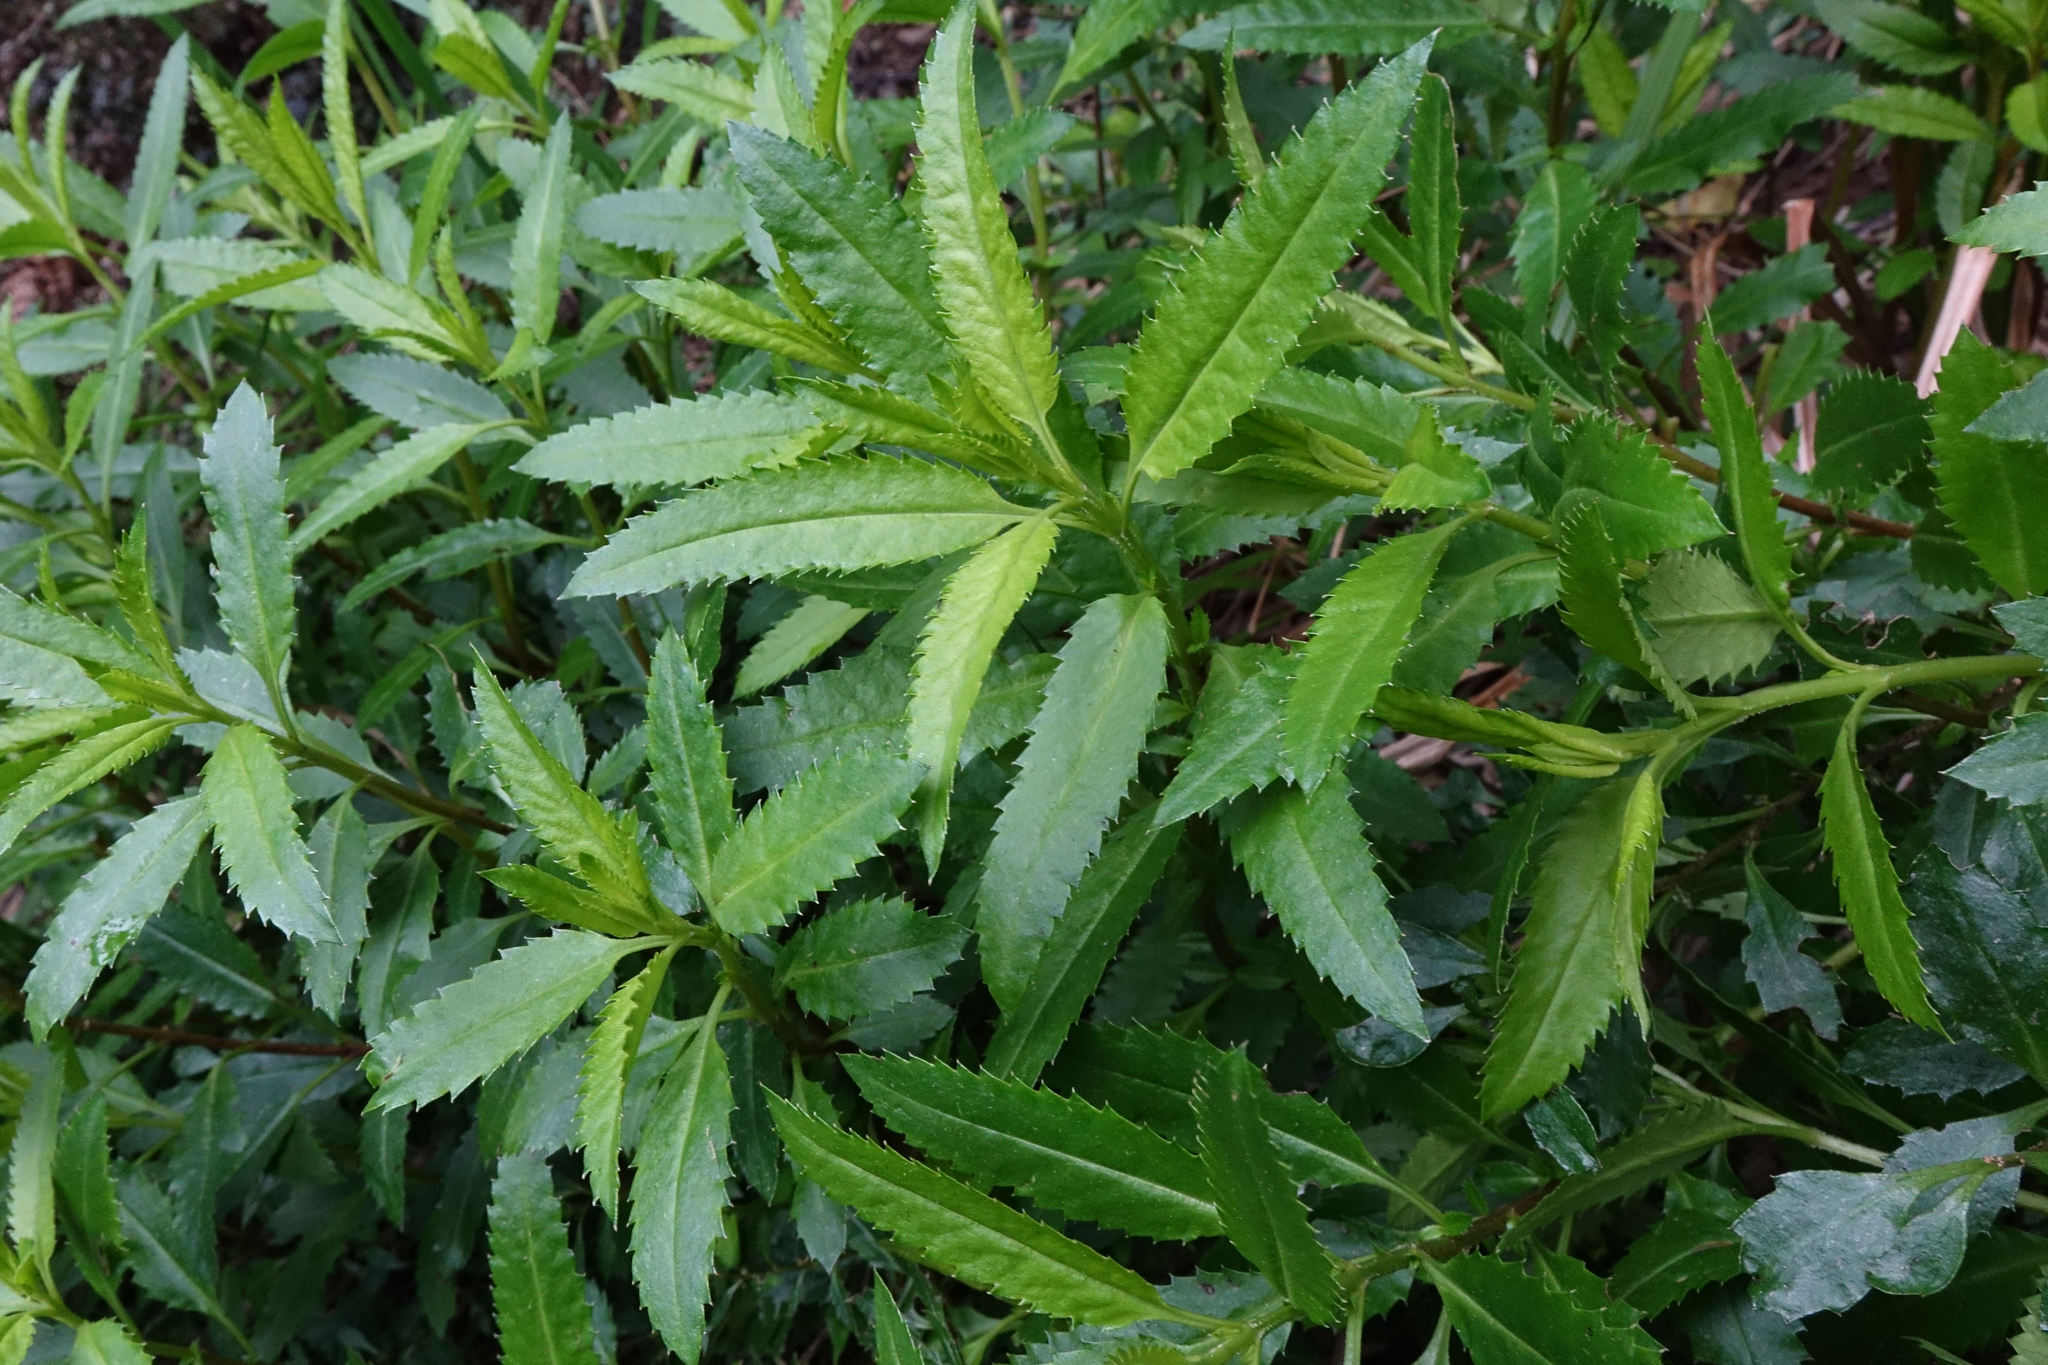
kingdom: Plantae
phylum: Tracheophyta
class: Magnoliopsida
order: Saxifragales
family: Haloragaceae
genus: Haloragis
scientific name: Haloragis erecta
